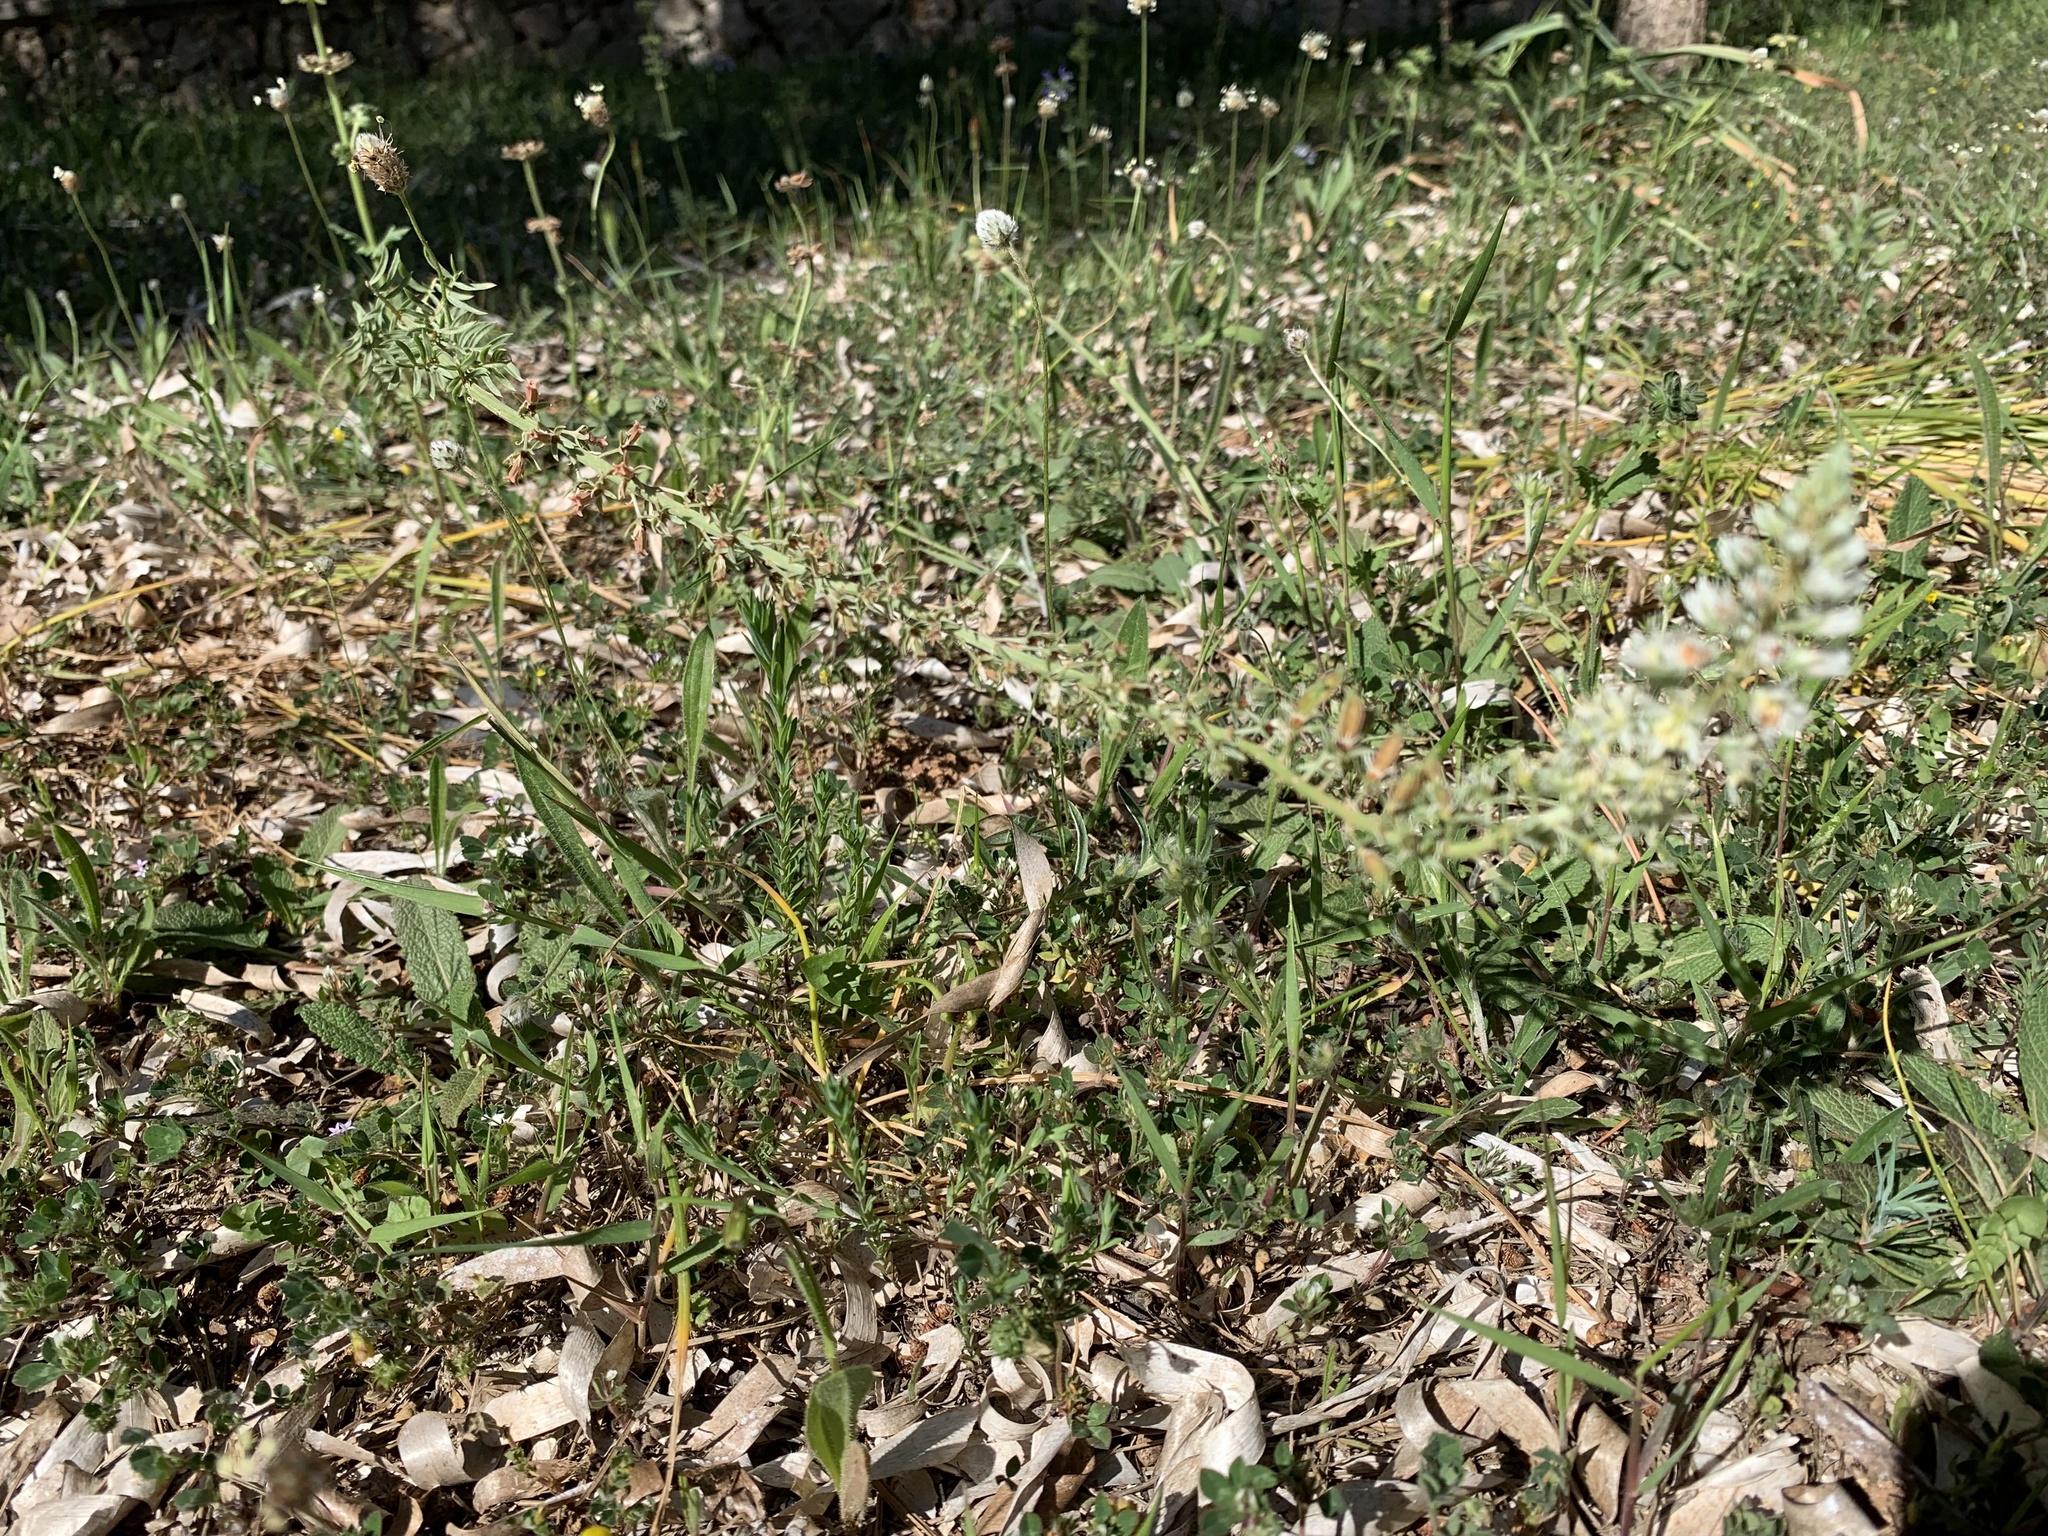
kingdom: Plantae
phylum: Tracheophyta
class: Magnoliopsida
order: Brassicales
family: Resedaceae
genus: Reseda
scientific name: Reseda alba
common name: White mignonette
